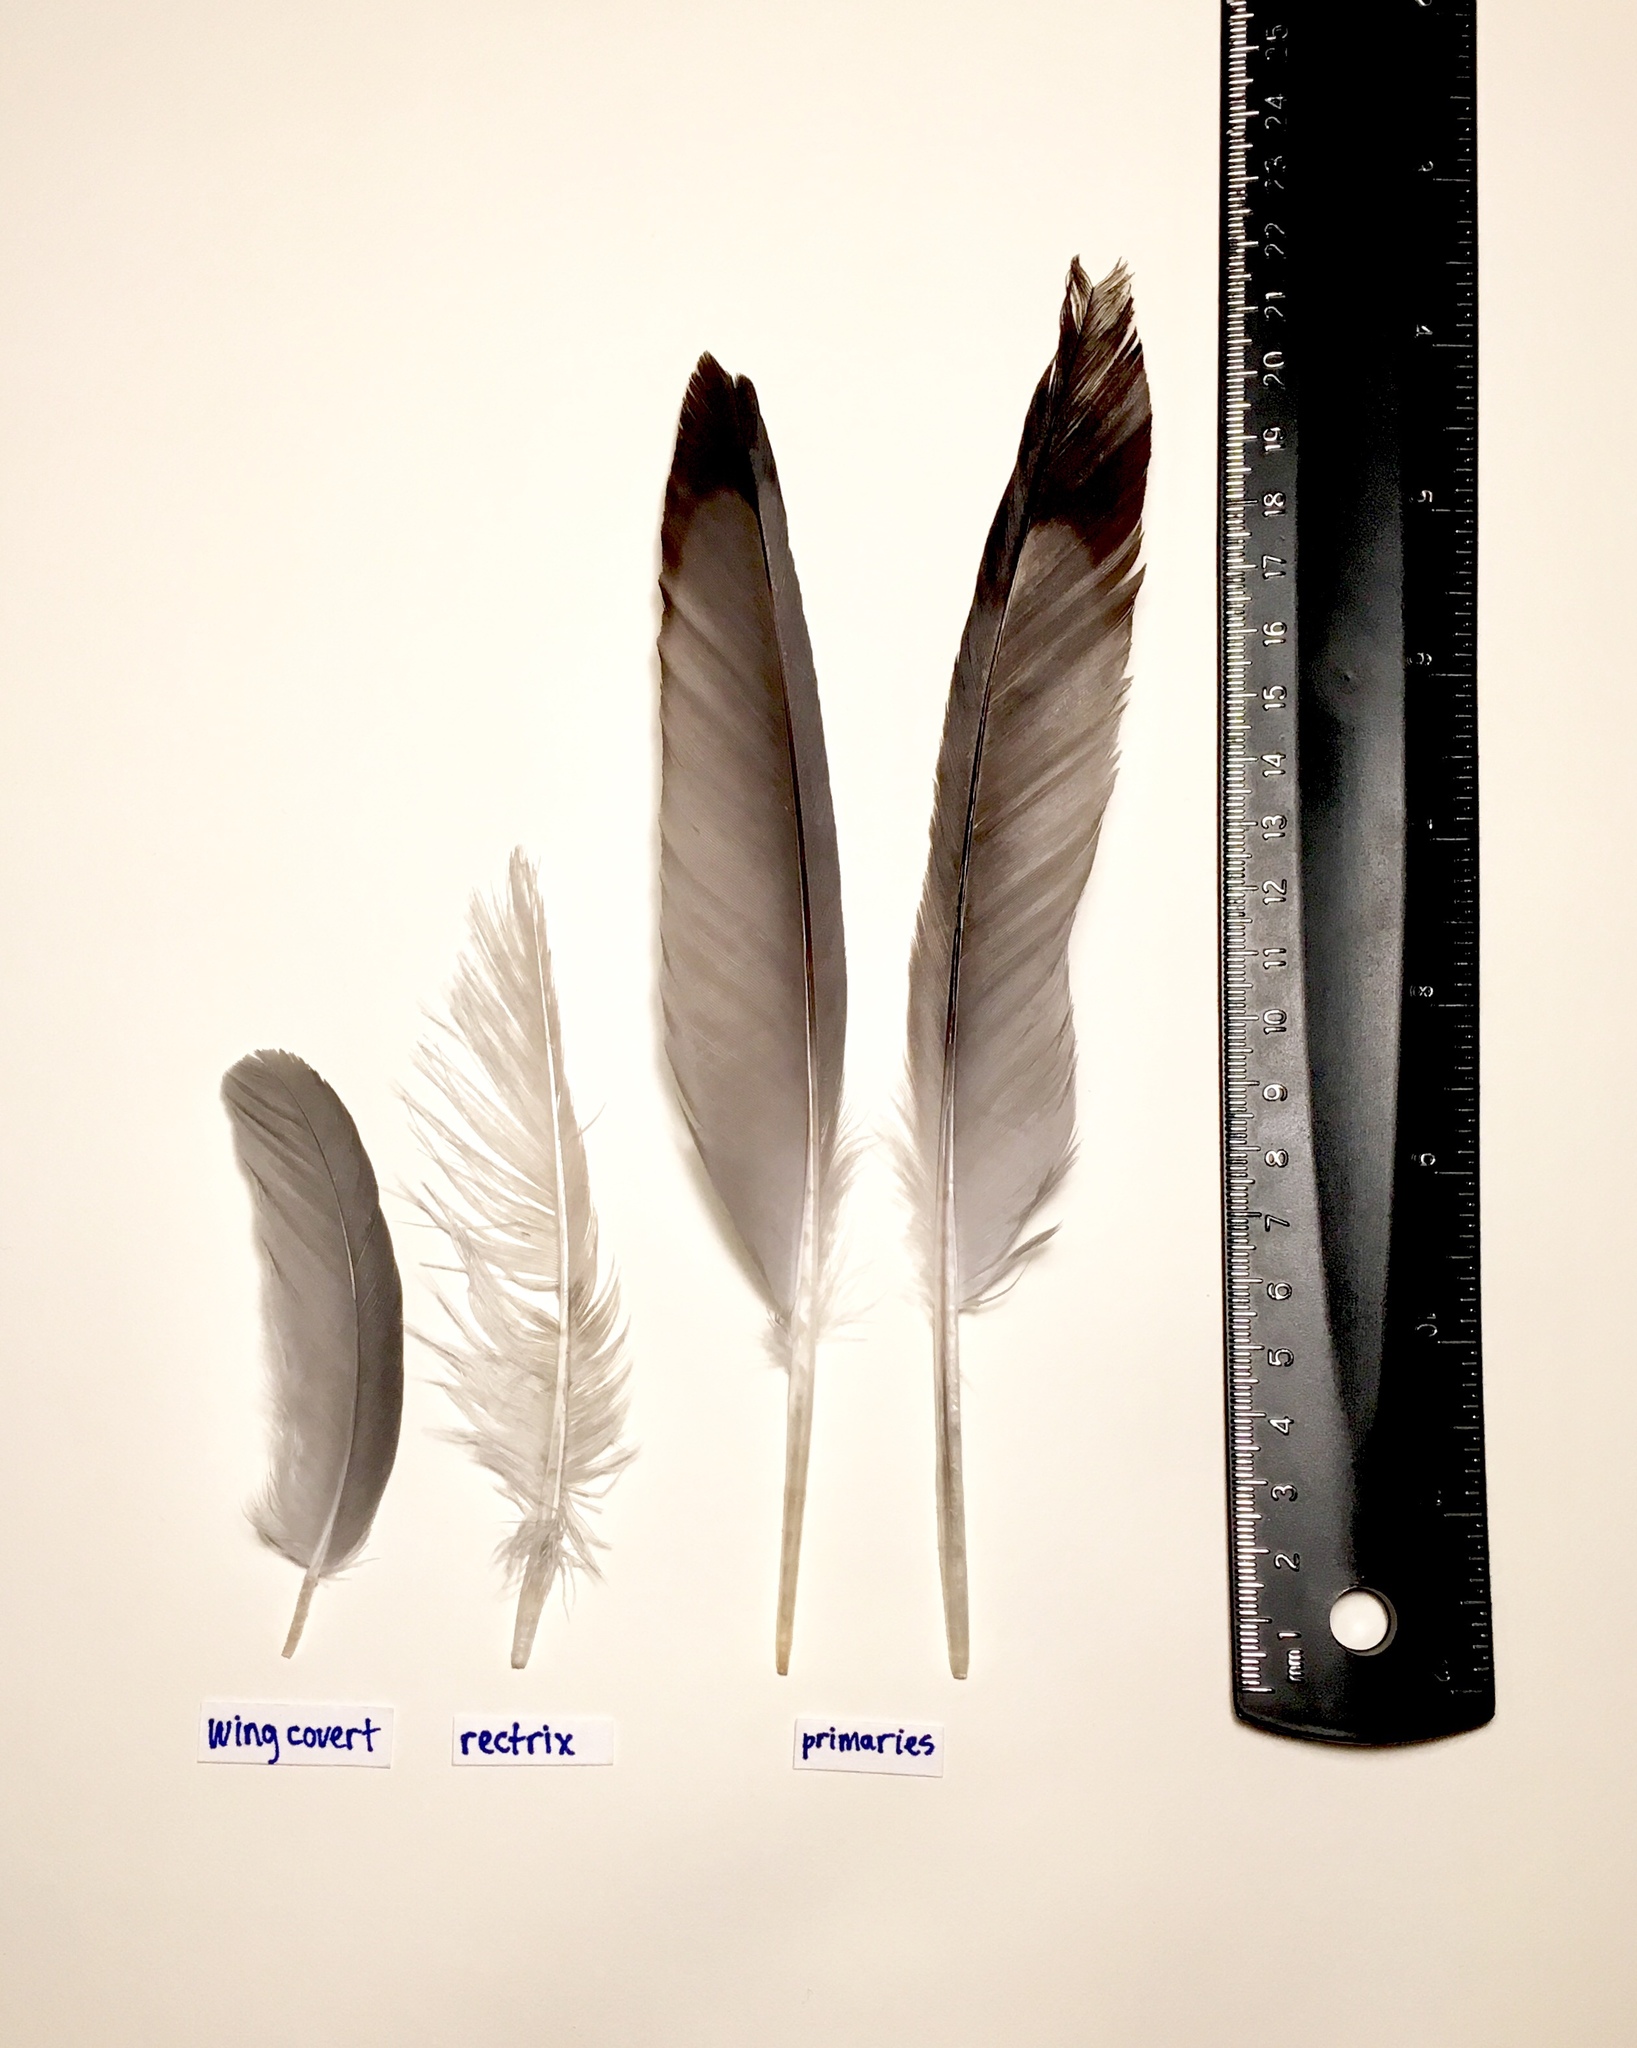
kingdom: Animalia
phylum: Chordata
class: Aves
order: Charadriiformes
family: Laridae
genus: Leucophaeus
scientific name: Leucophaeus atricilla
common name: Laughing gull
